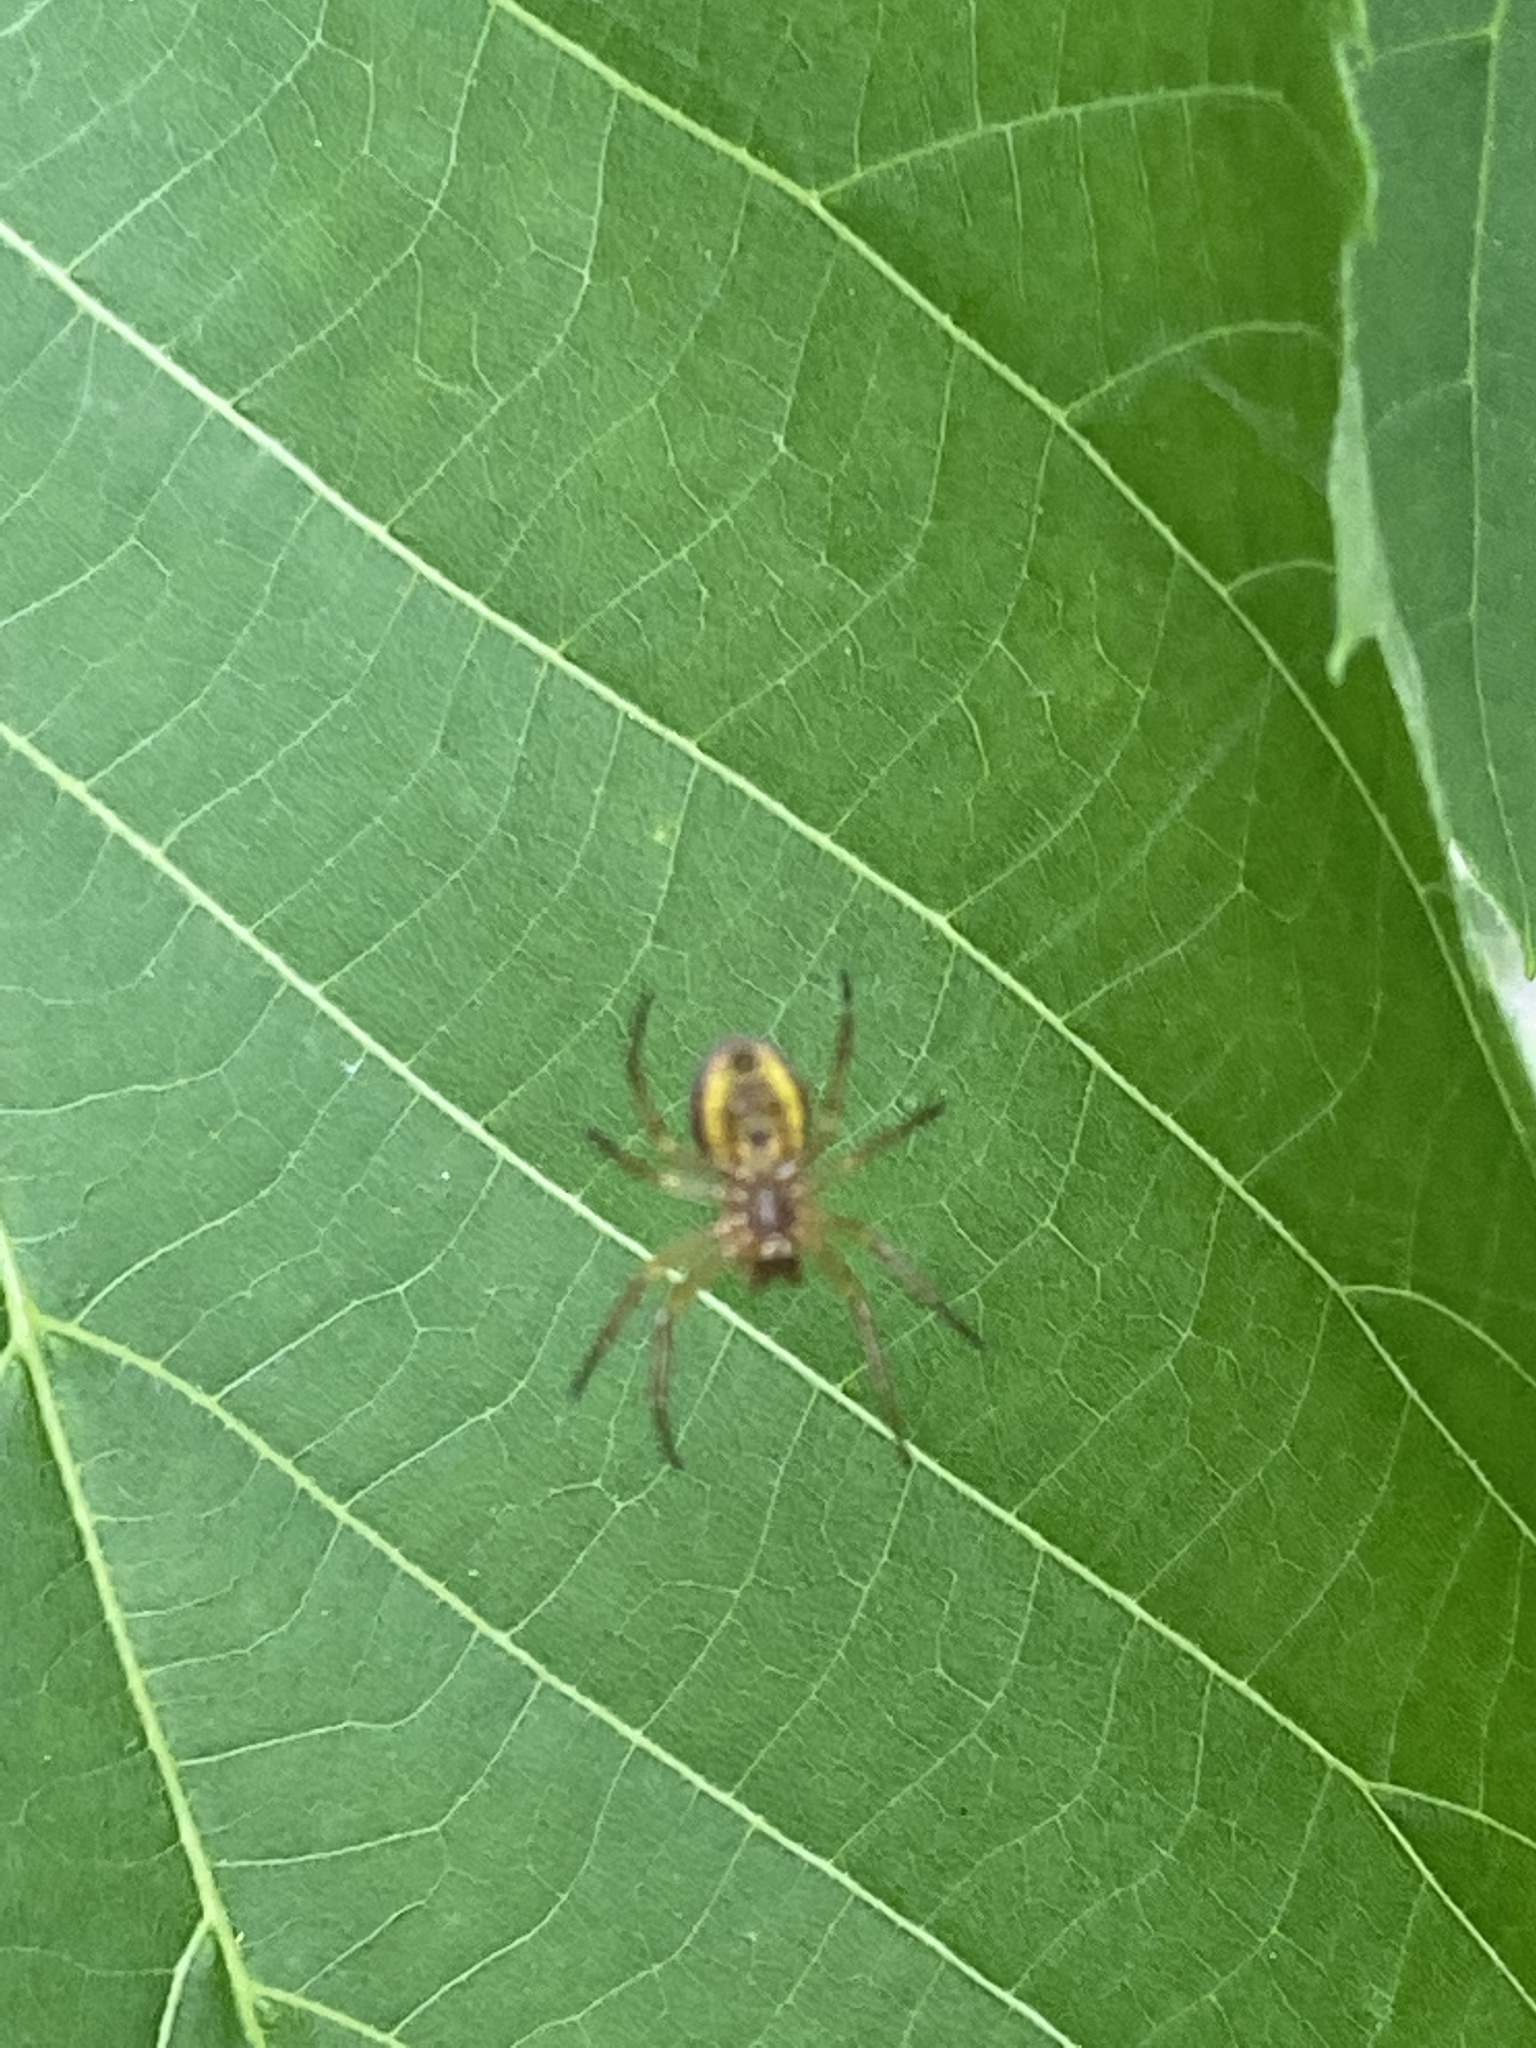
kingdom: Animalia
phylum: Arthropoda
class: Arachnida
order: Araneae
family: Araneidae
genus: Araniella
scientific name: Araniella displicata
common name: Sixspotted orb weaver
